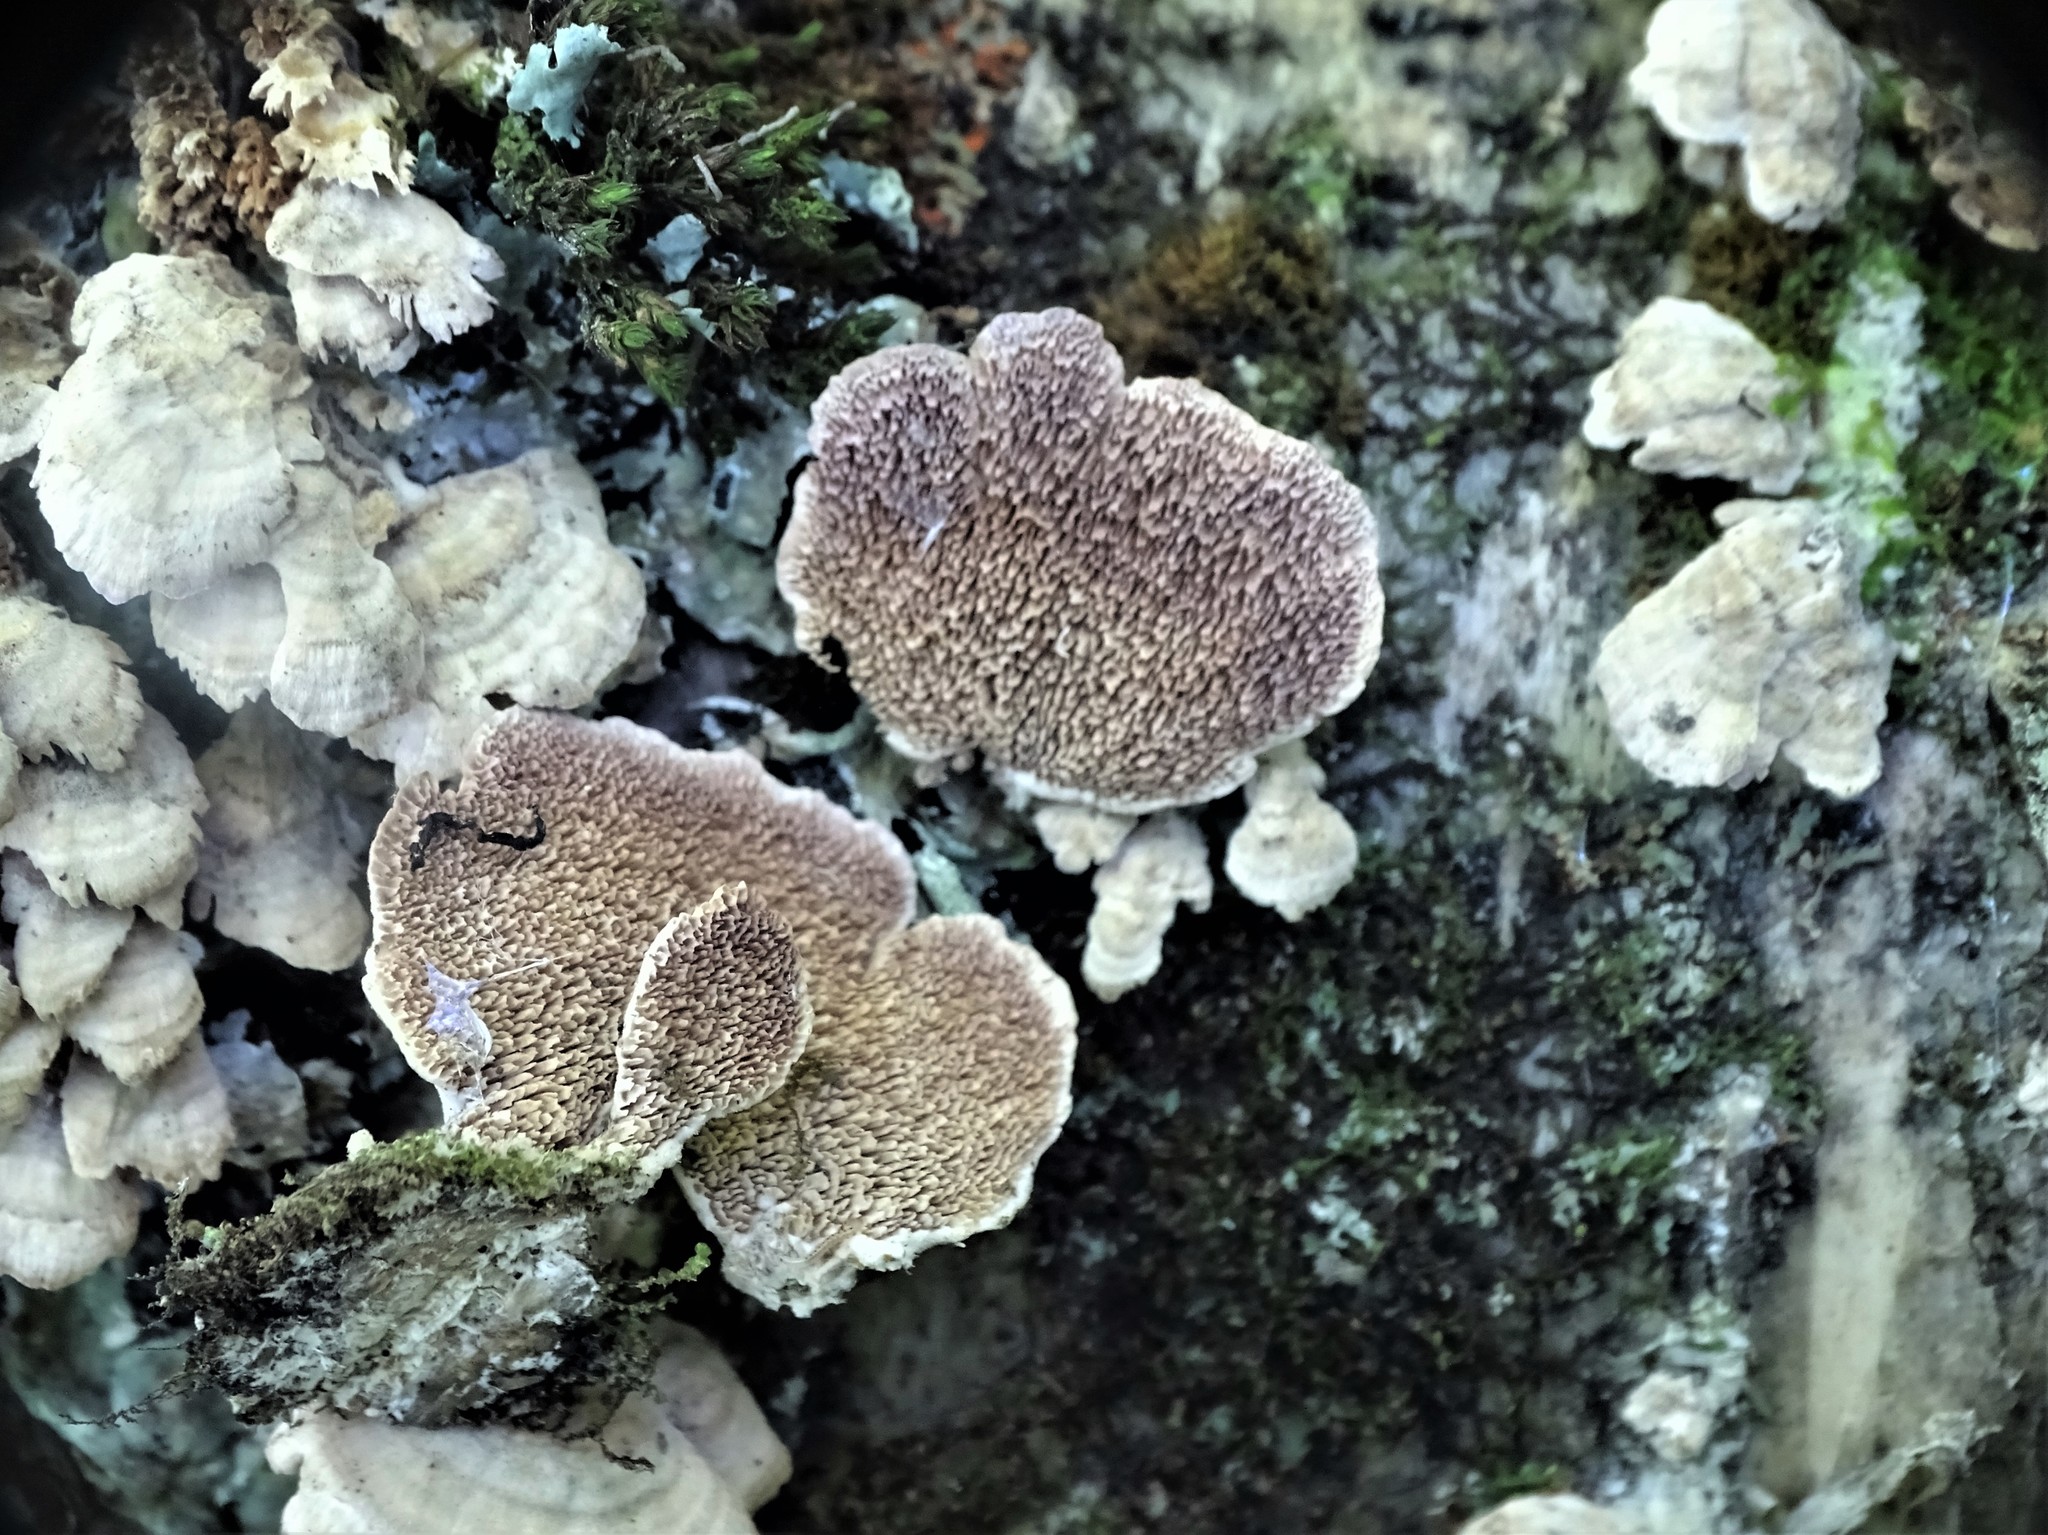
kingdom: Fungi
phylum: Basidiomycota
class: Agaricomycetes
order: Hymenochaetales
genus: Trichaptum
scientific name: Trichaptum biforme
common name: Violet-toothed polypore
